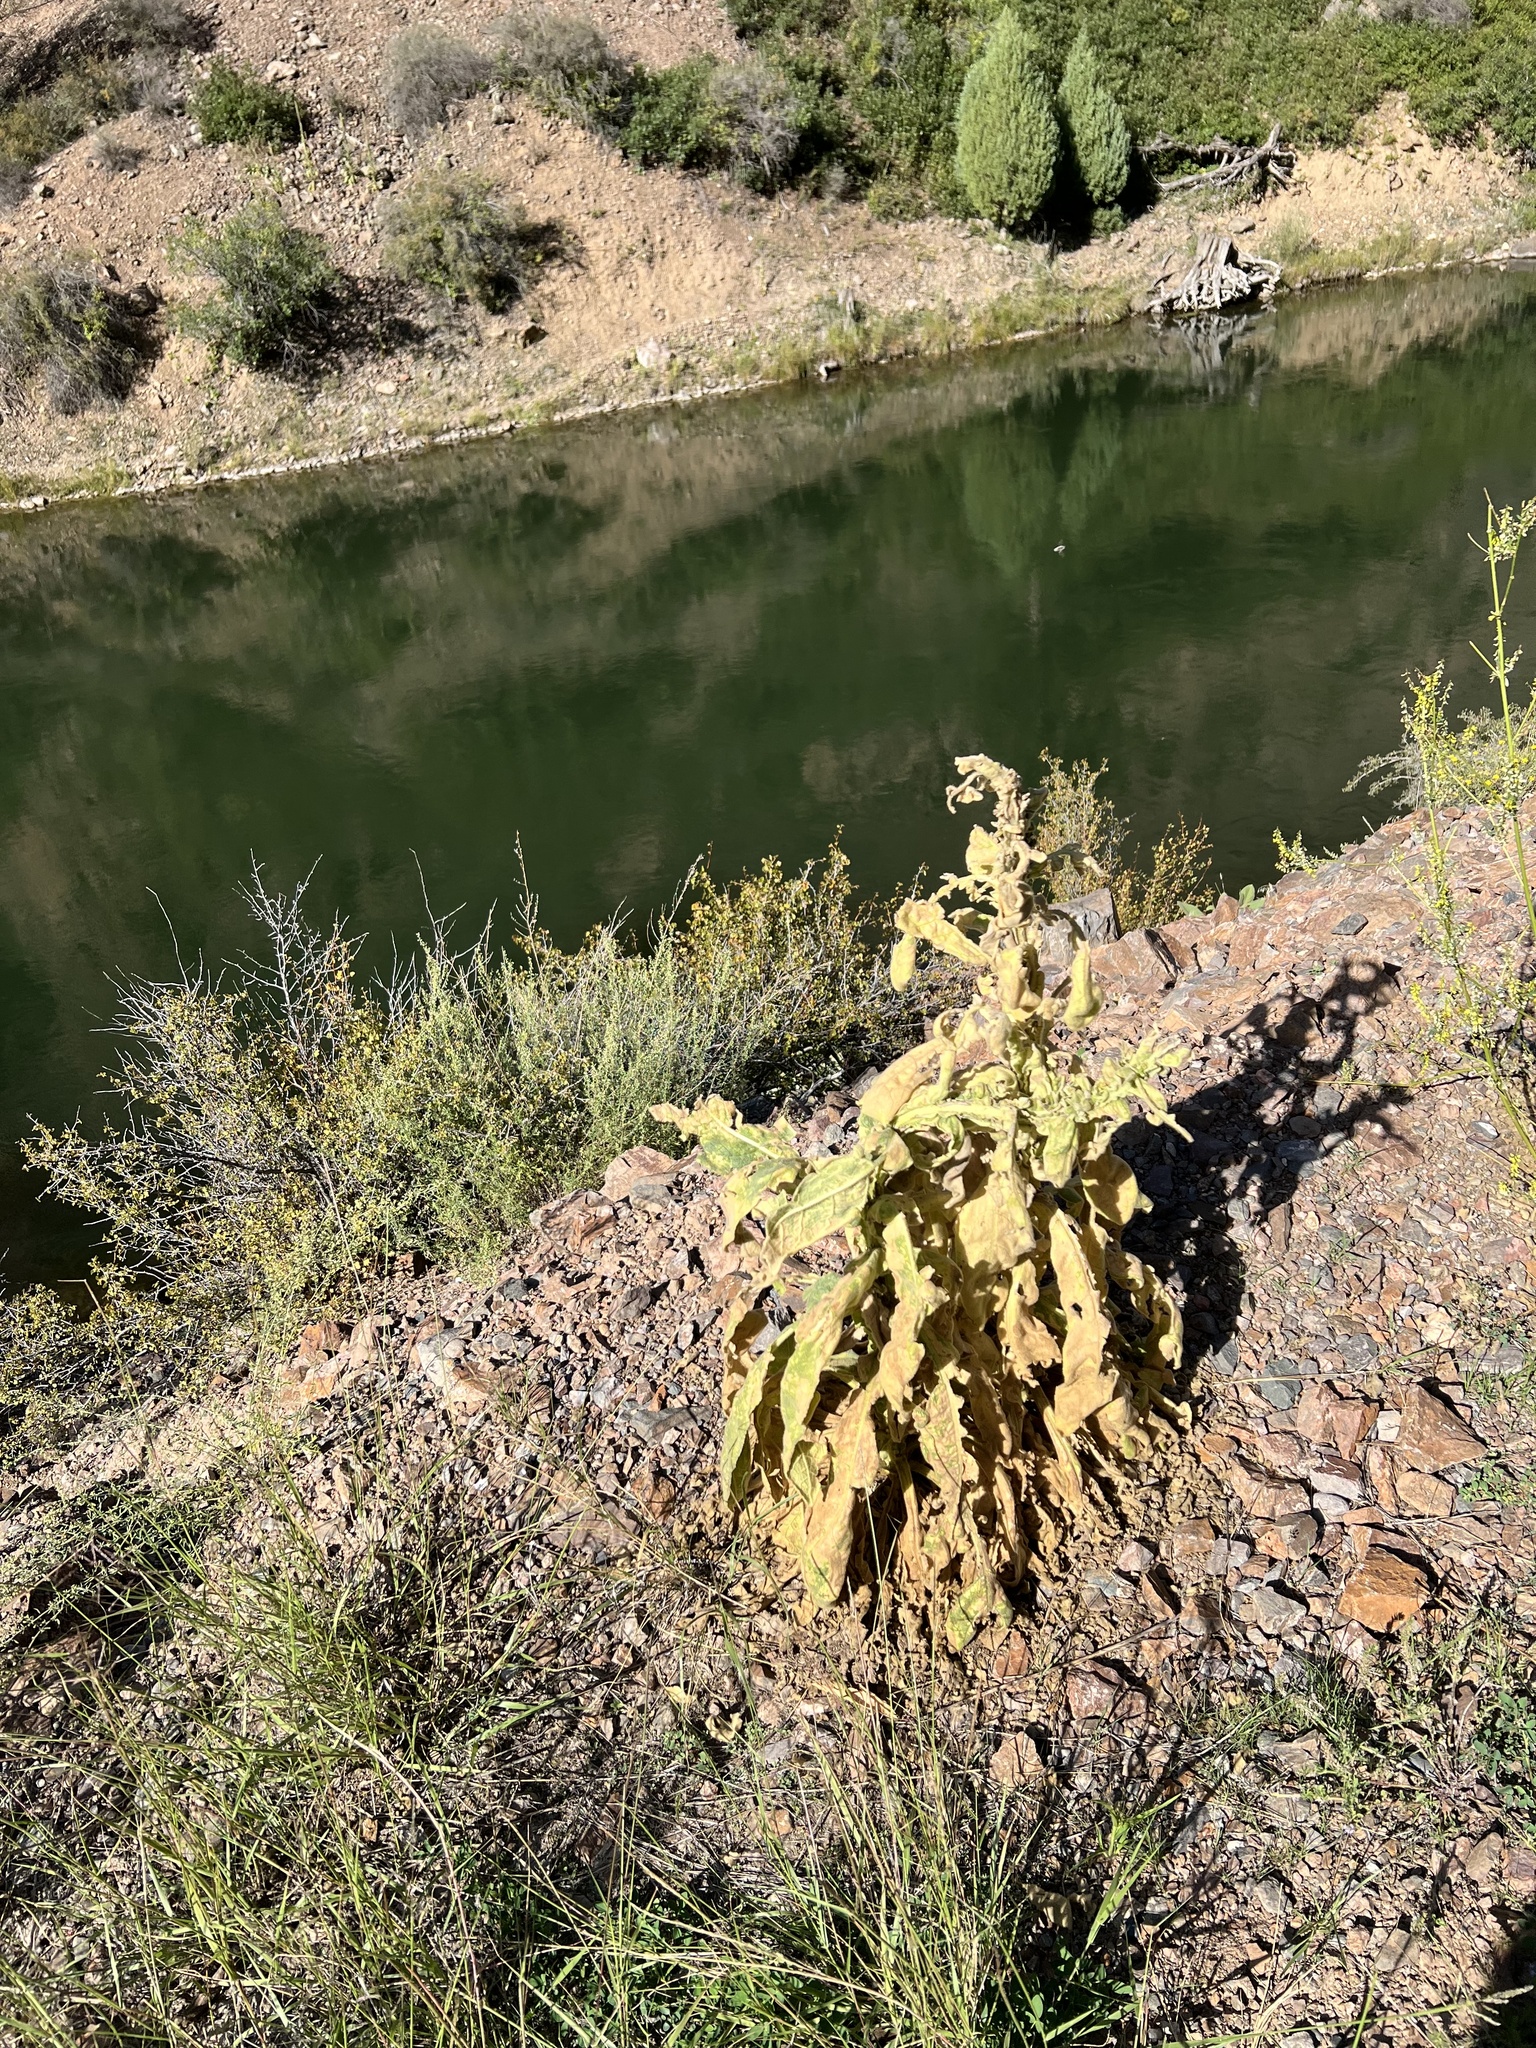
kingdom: Plantae
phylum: Tracheophyta
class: Magnoliopsida
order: Lamiales
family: Scrophulariaceae
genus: Verbascum
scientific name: Verbascum thapsus
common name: Common mullein
